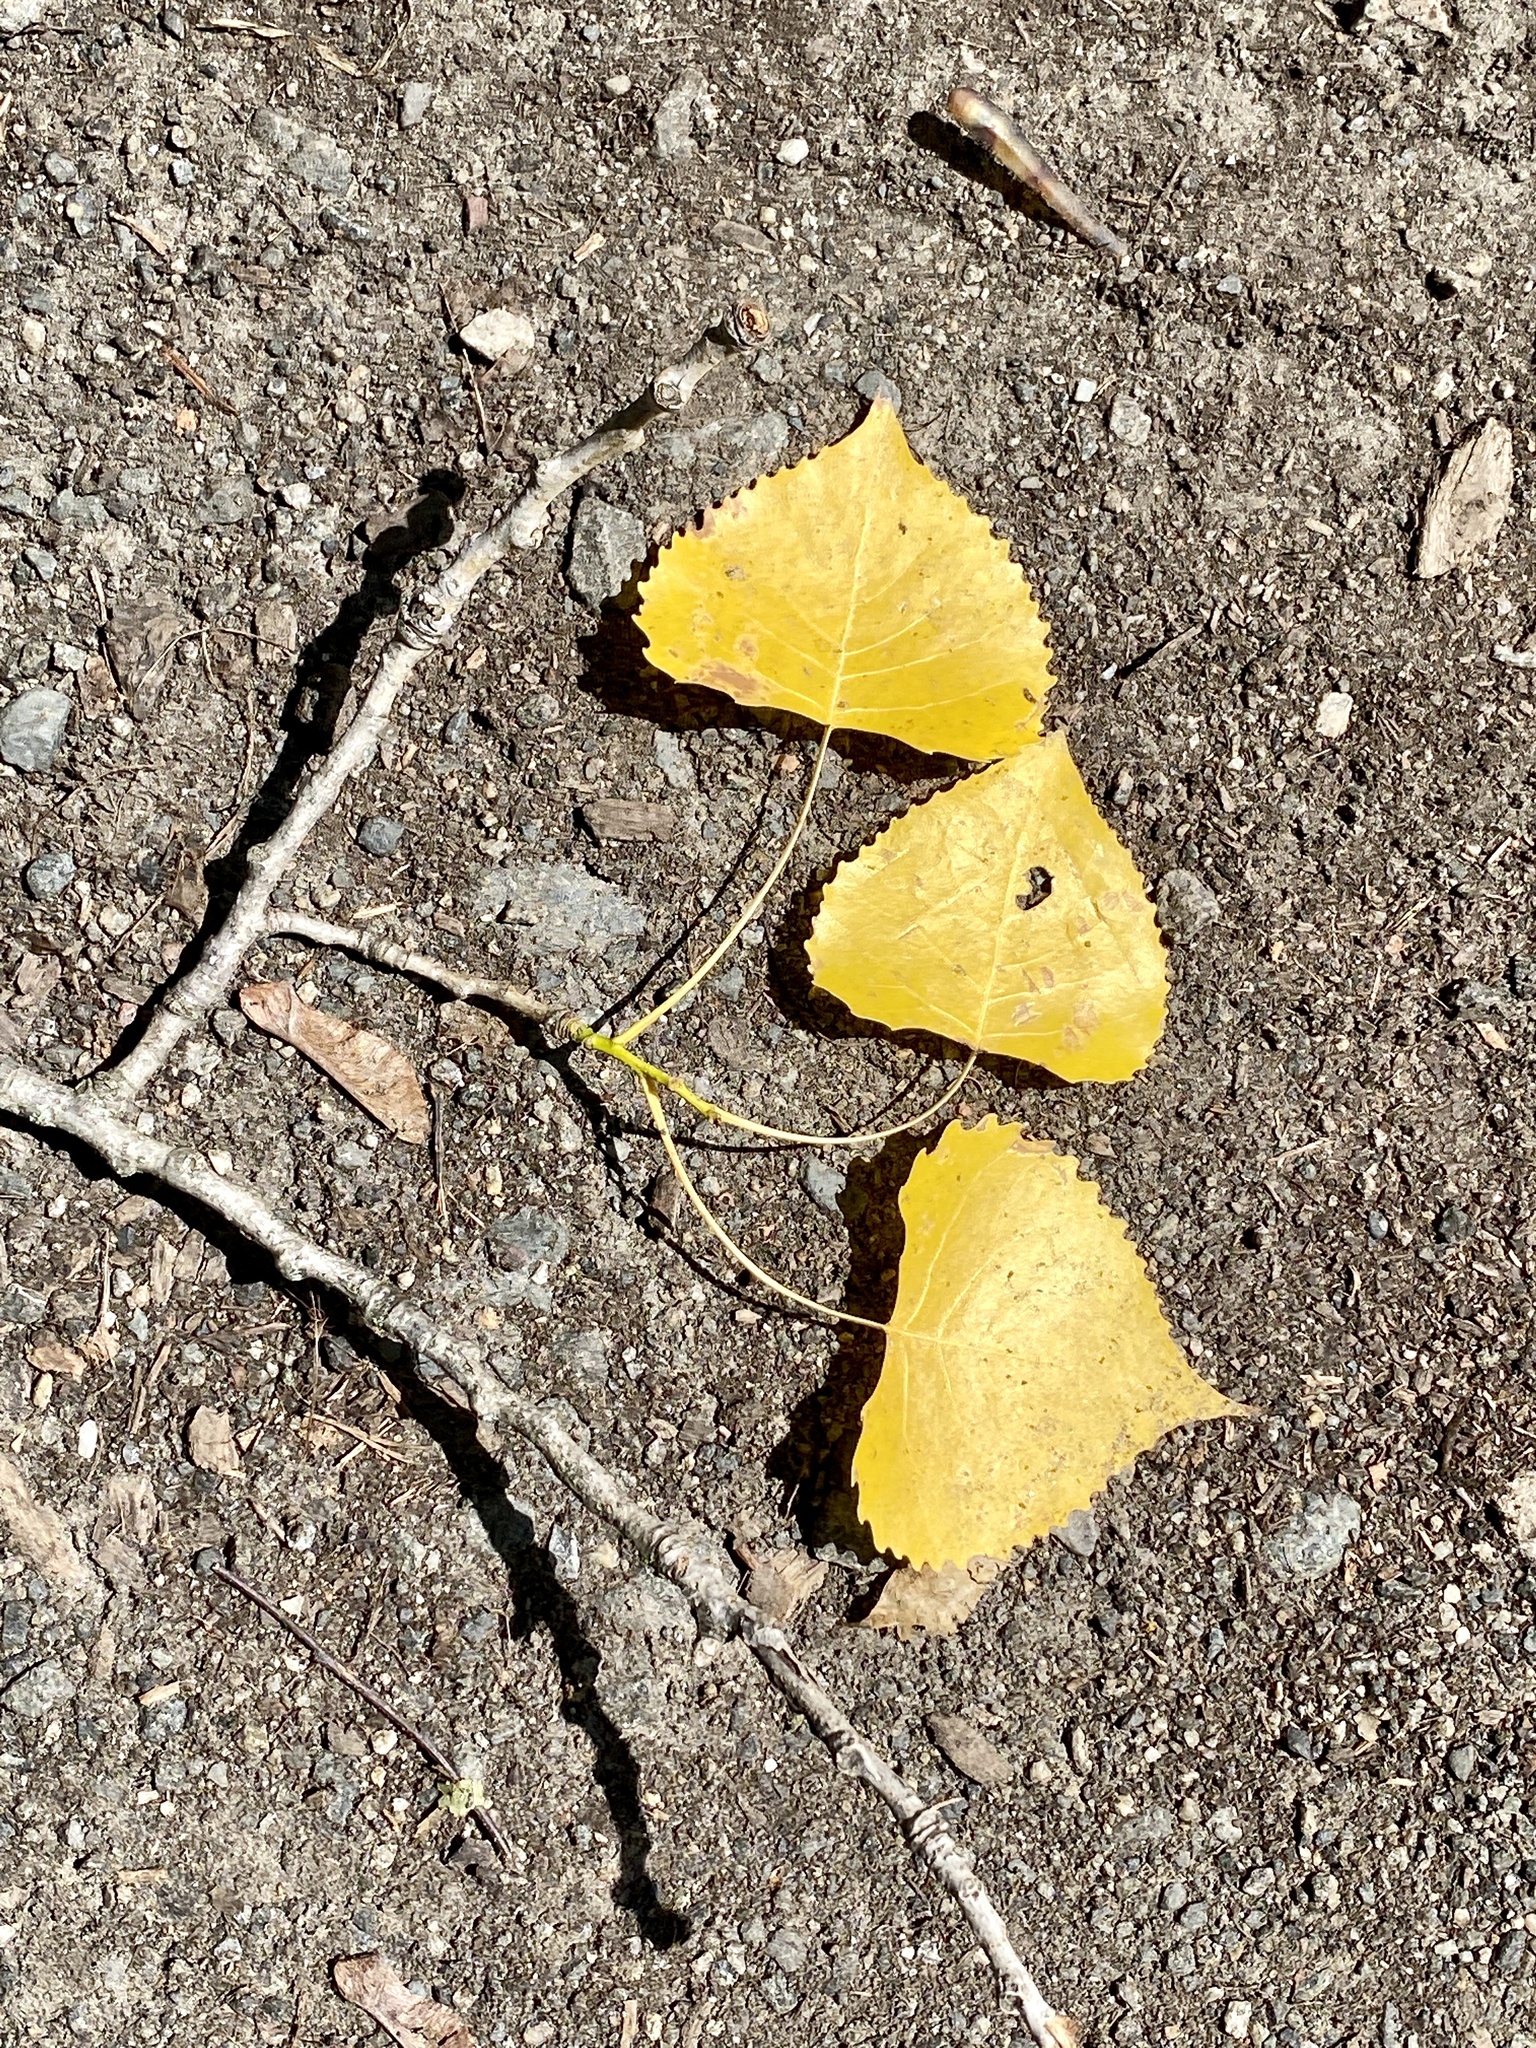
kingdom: Plantae
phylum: Tracheophyta
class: Magnoliopsida
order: Malpighiales
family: Salicaceae
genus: Populus
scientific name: Populus deltoides
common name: Eastern cottonwood
